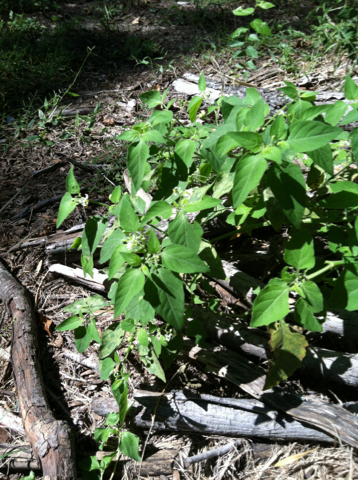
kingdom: Plantae
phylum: Tracheophyta
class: Magnoliopsida
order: Solanales
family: Solanaceae
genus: Solanum
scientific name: Solanum emulans
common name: Eastern black nightshade
